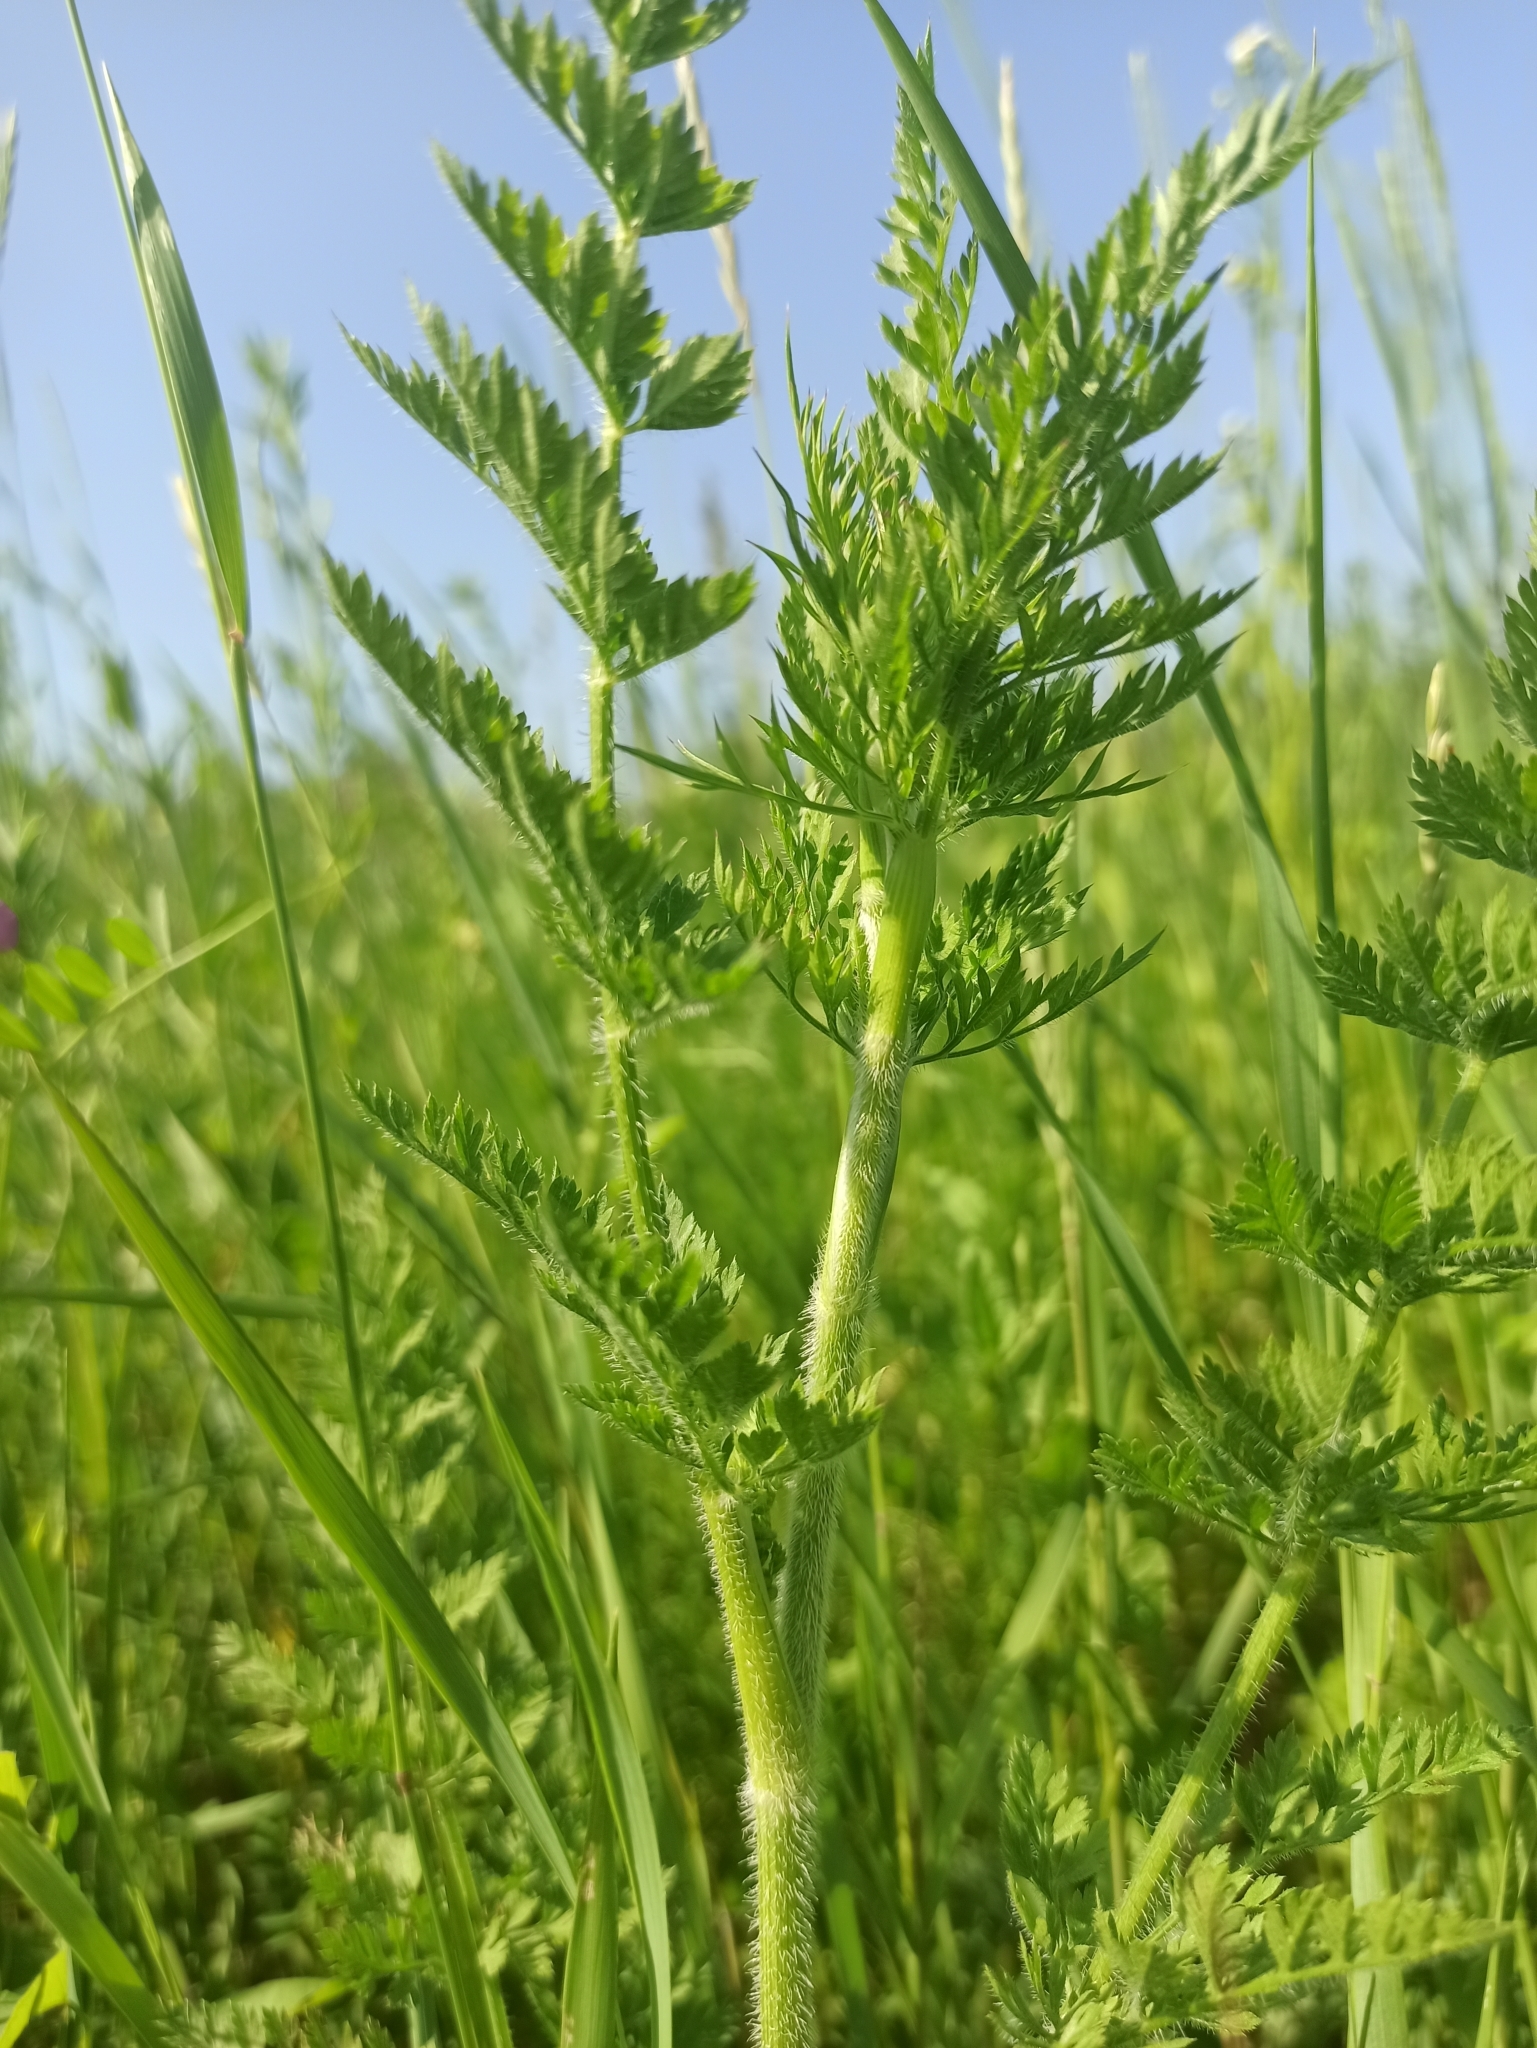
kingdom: Plantae
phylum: Tracheophyta
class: Magnoliopsida
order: Apiales
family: Apiaceae
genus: Daucus
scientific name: Daucus carota
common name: Wild carrot
